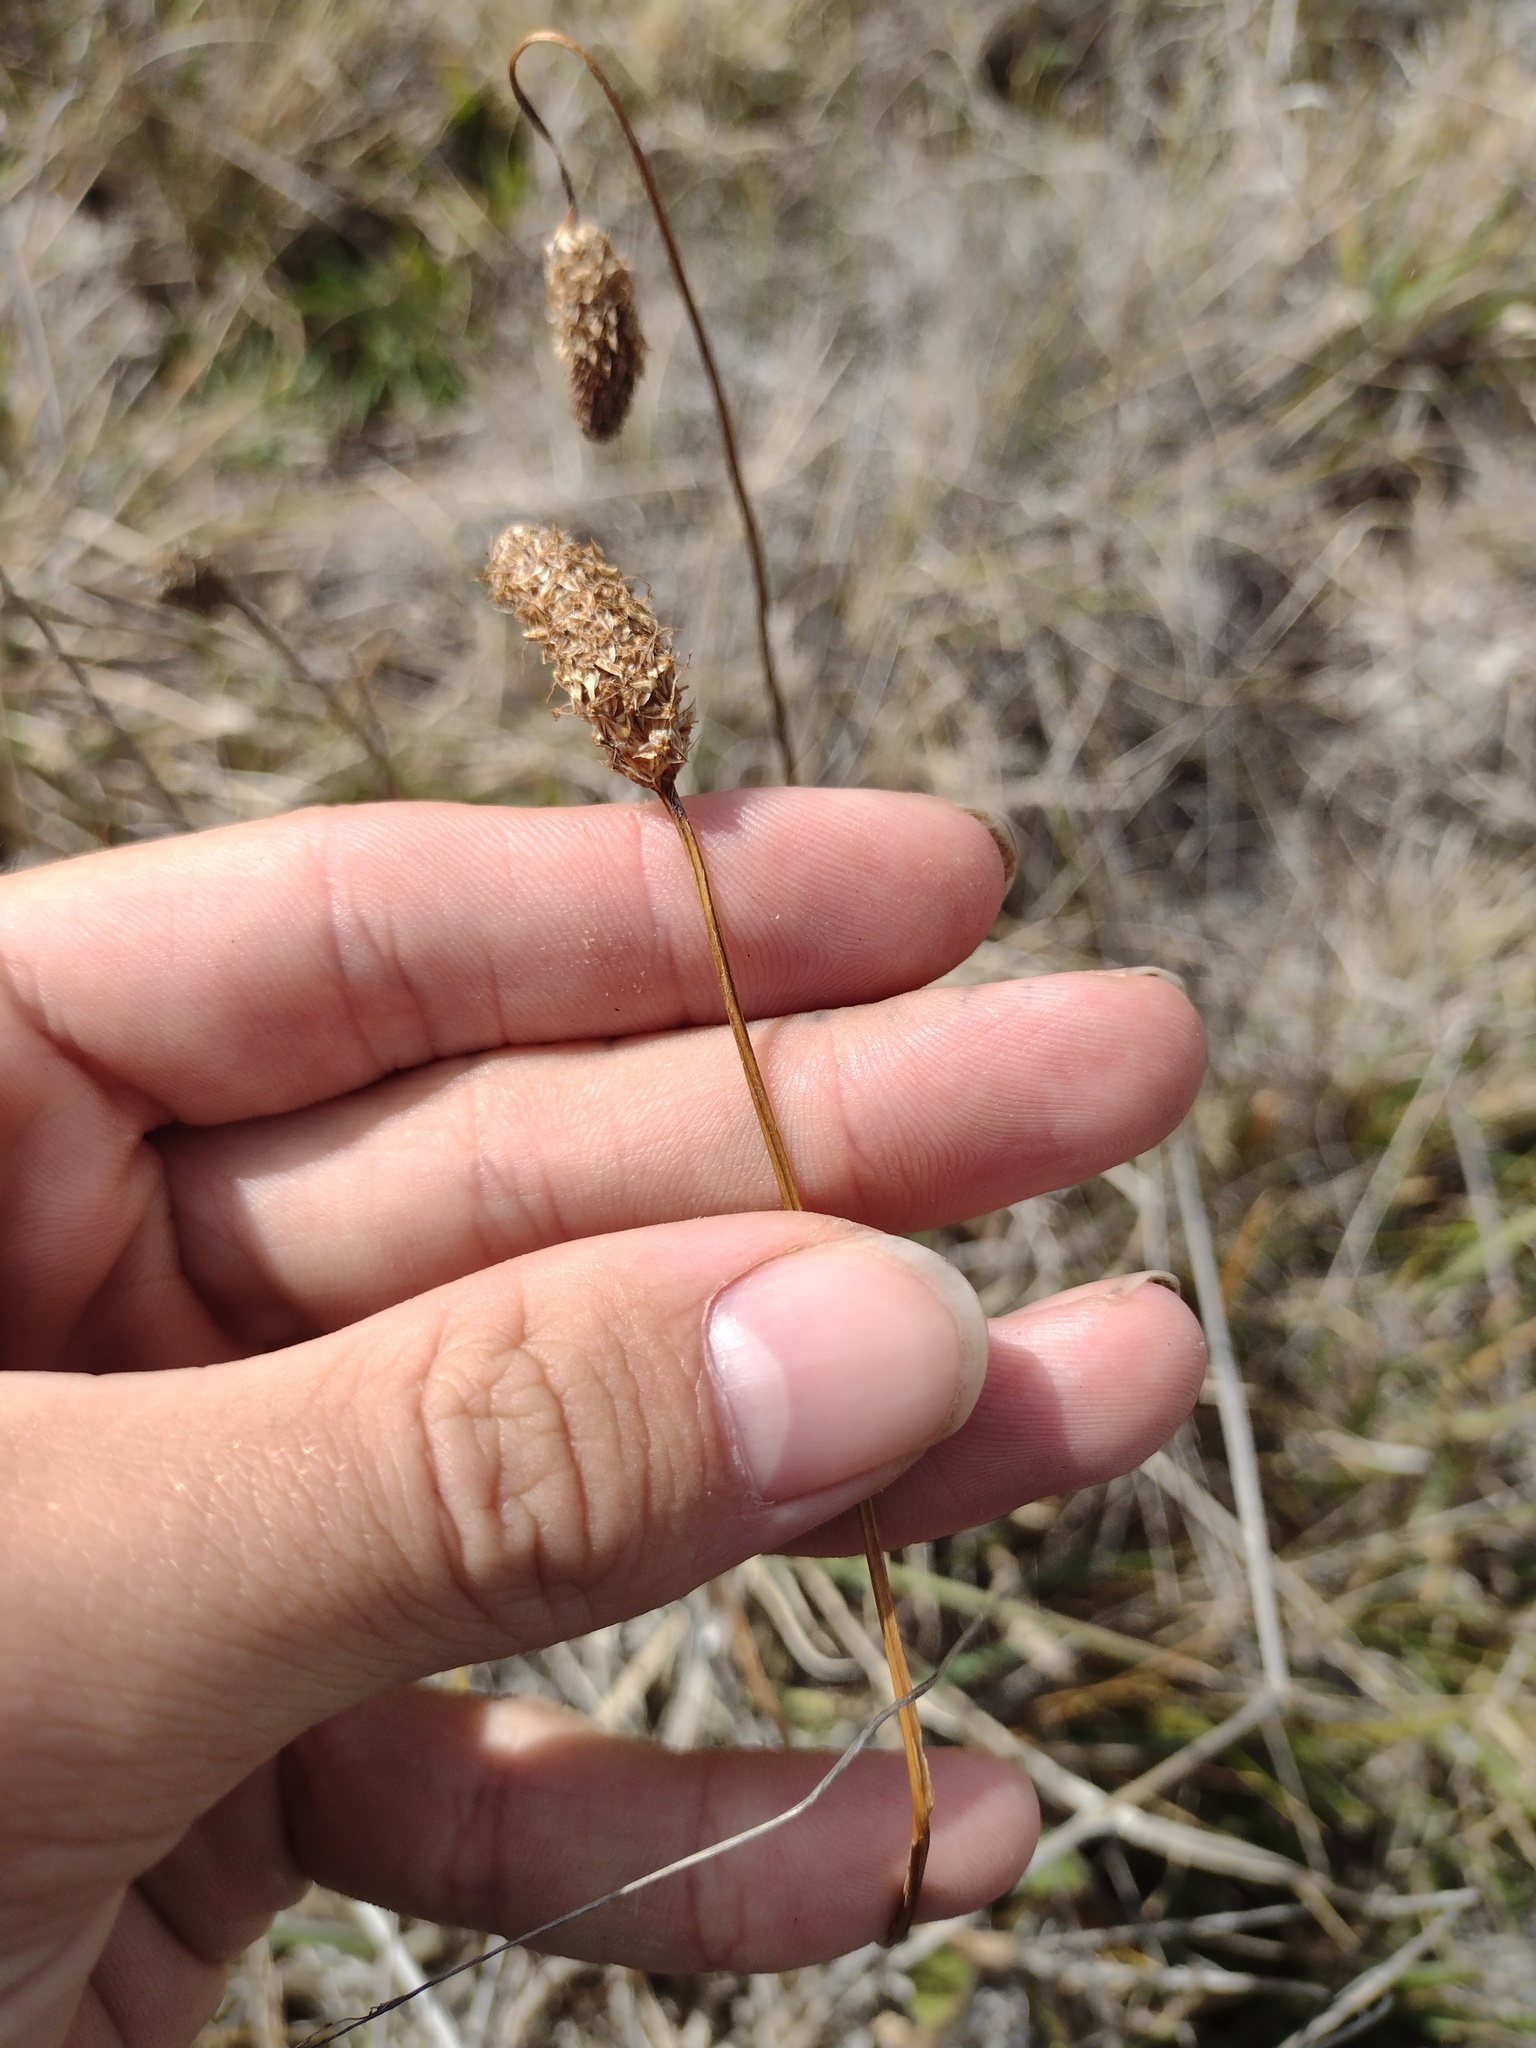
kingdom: Plantae
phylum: Tracheophyta
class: Magnoliopsida
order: Lamiales
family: Plantaginaceae
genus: Plantago
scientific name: Plantago lanceolata
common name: Ribwort plantain
